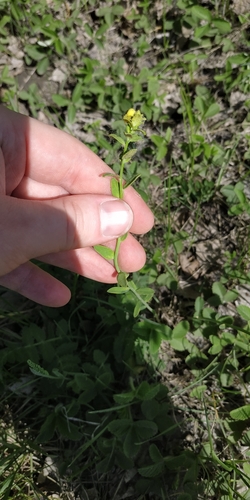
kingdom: Fungi
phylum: Basidiomycota
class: Pucciniomycetes
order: Pucciniales
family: Pucciniaceae
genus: Uromyces
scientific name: Uromyces pisi-sativi
